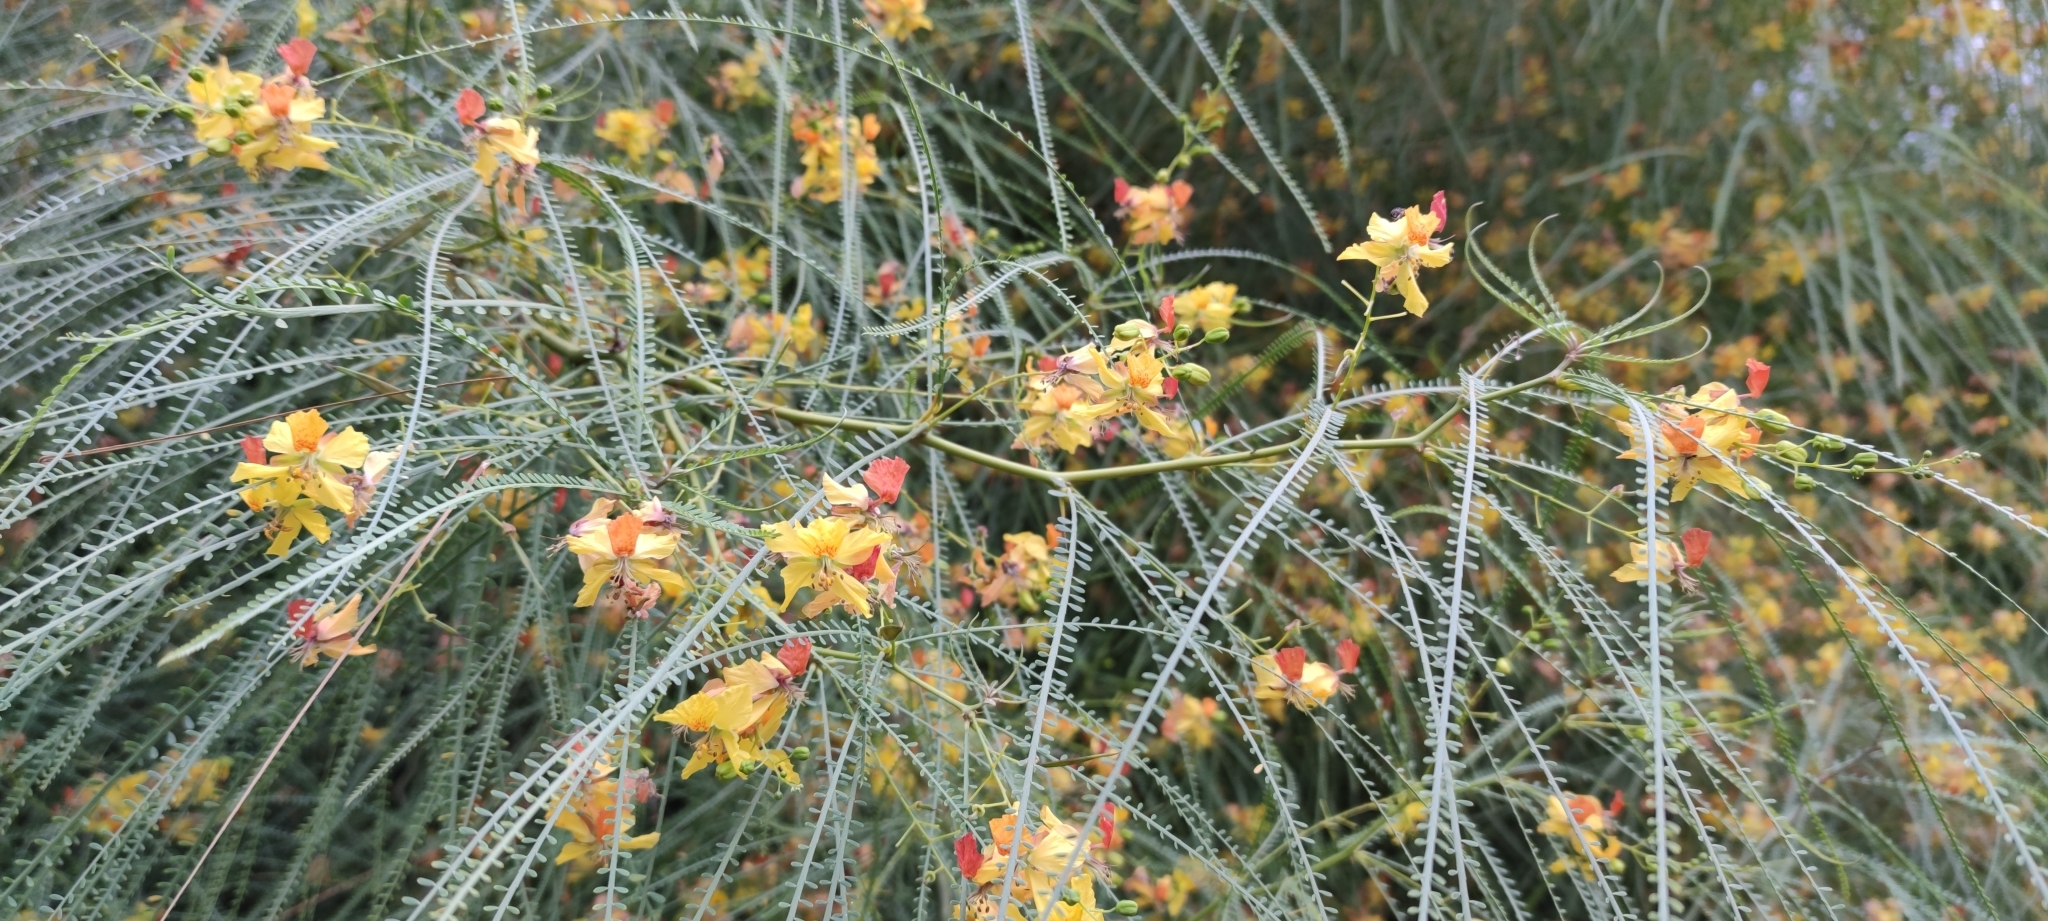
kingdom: Plantae
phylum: Tracheophyta
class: Magnoliopsida
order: Fabales
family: Fabaceae
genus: Parkinsonia
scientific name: Parkinsonia aculeata
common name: Jerusalem thorn
